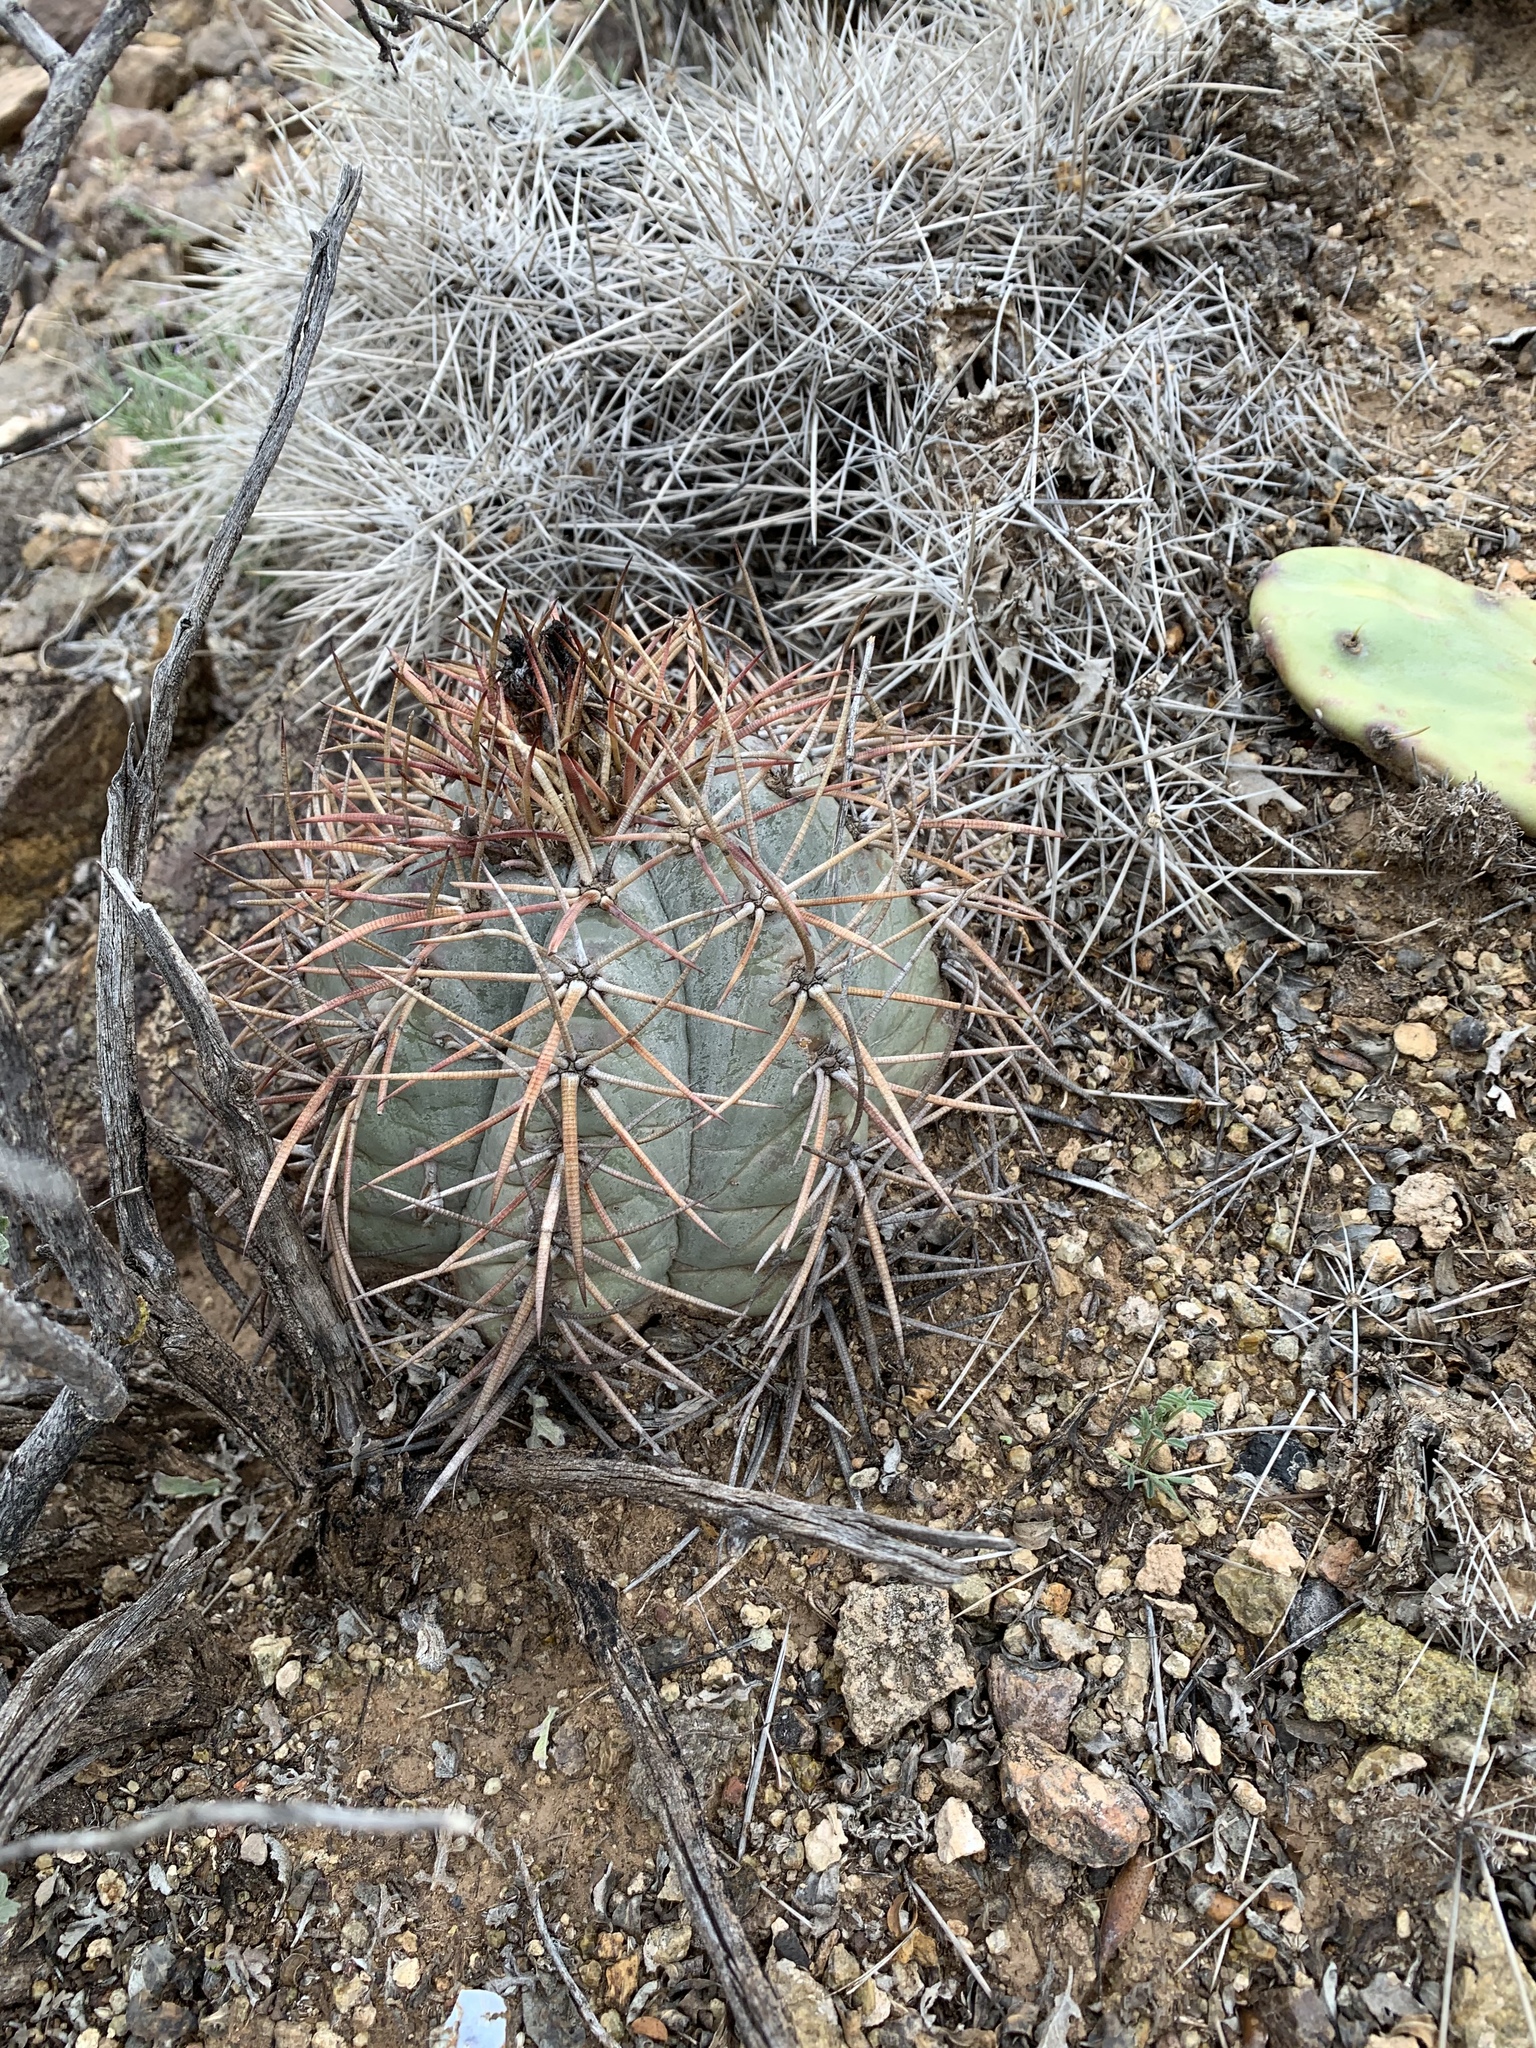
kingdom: Plantae
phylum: Tracheophyta
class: Magnoliopsida
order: Caryophyllales
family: Cactaceae
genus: Echinocactus
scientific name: Echinocactus horizonthalonius
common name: Devilshead
